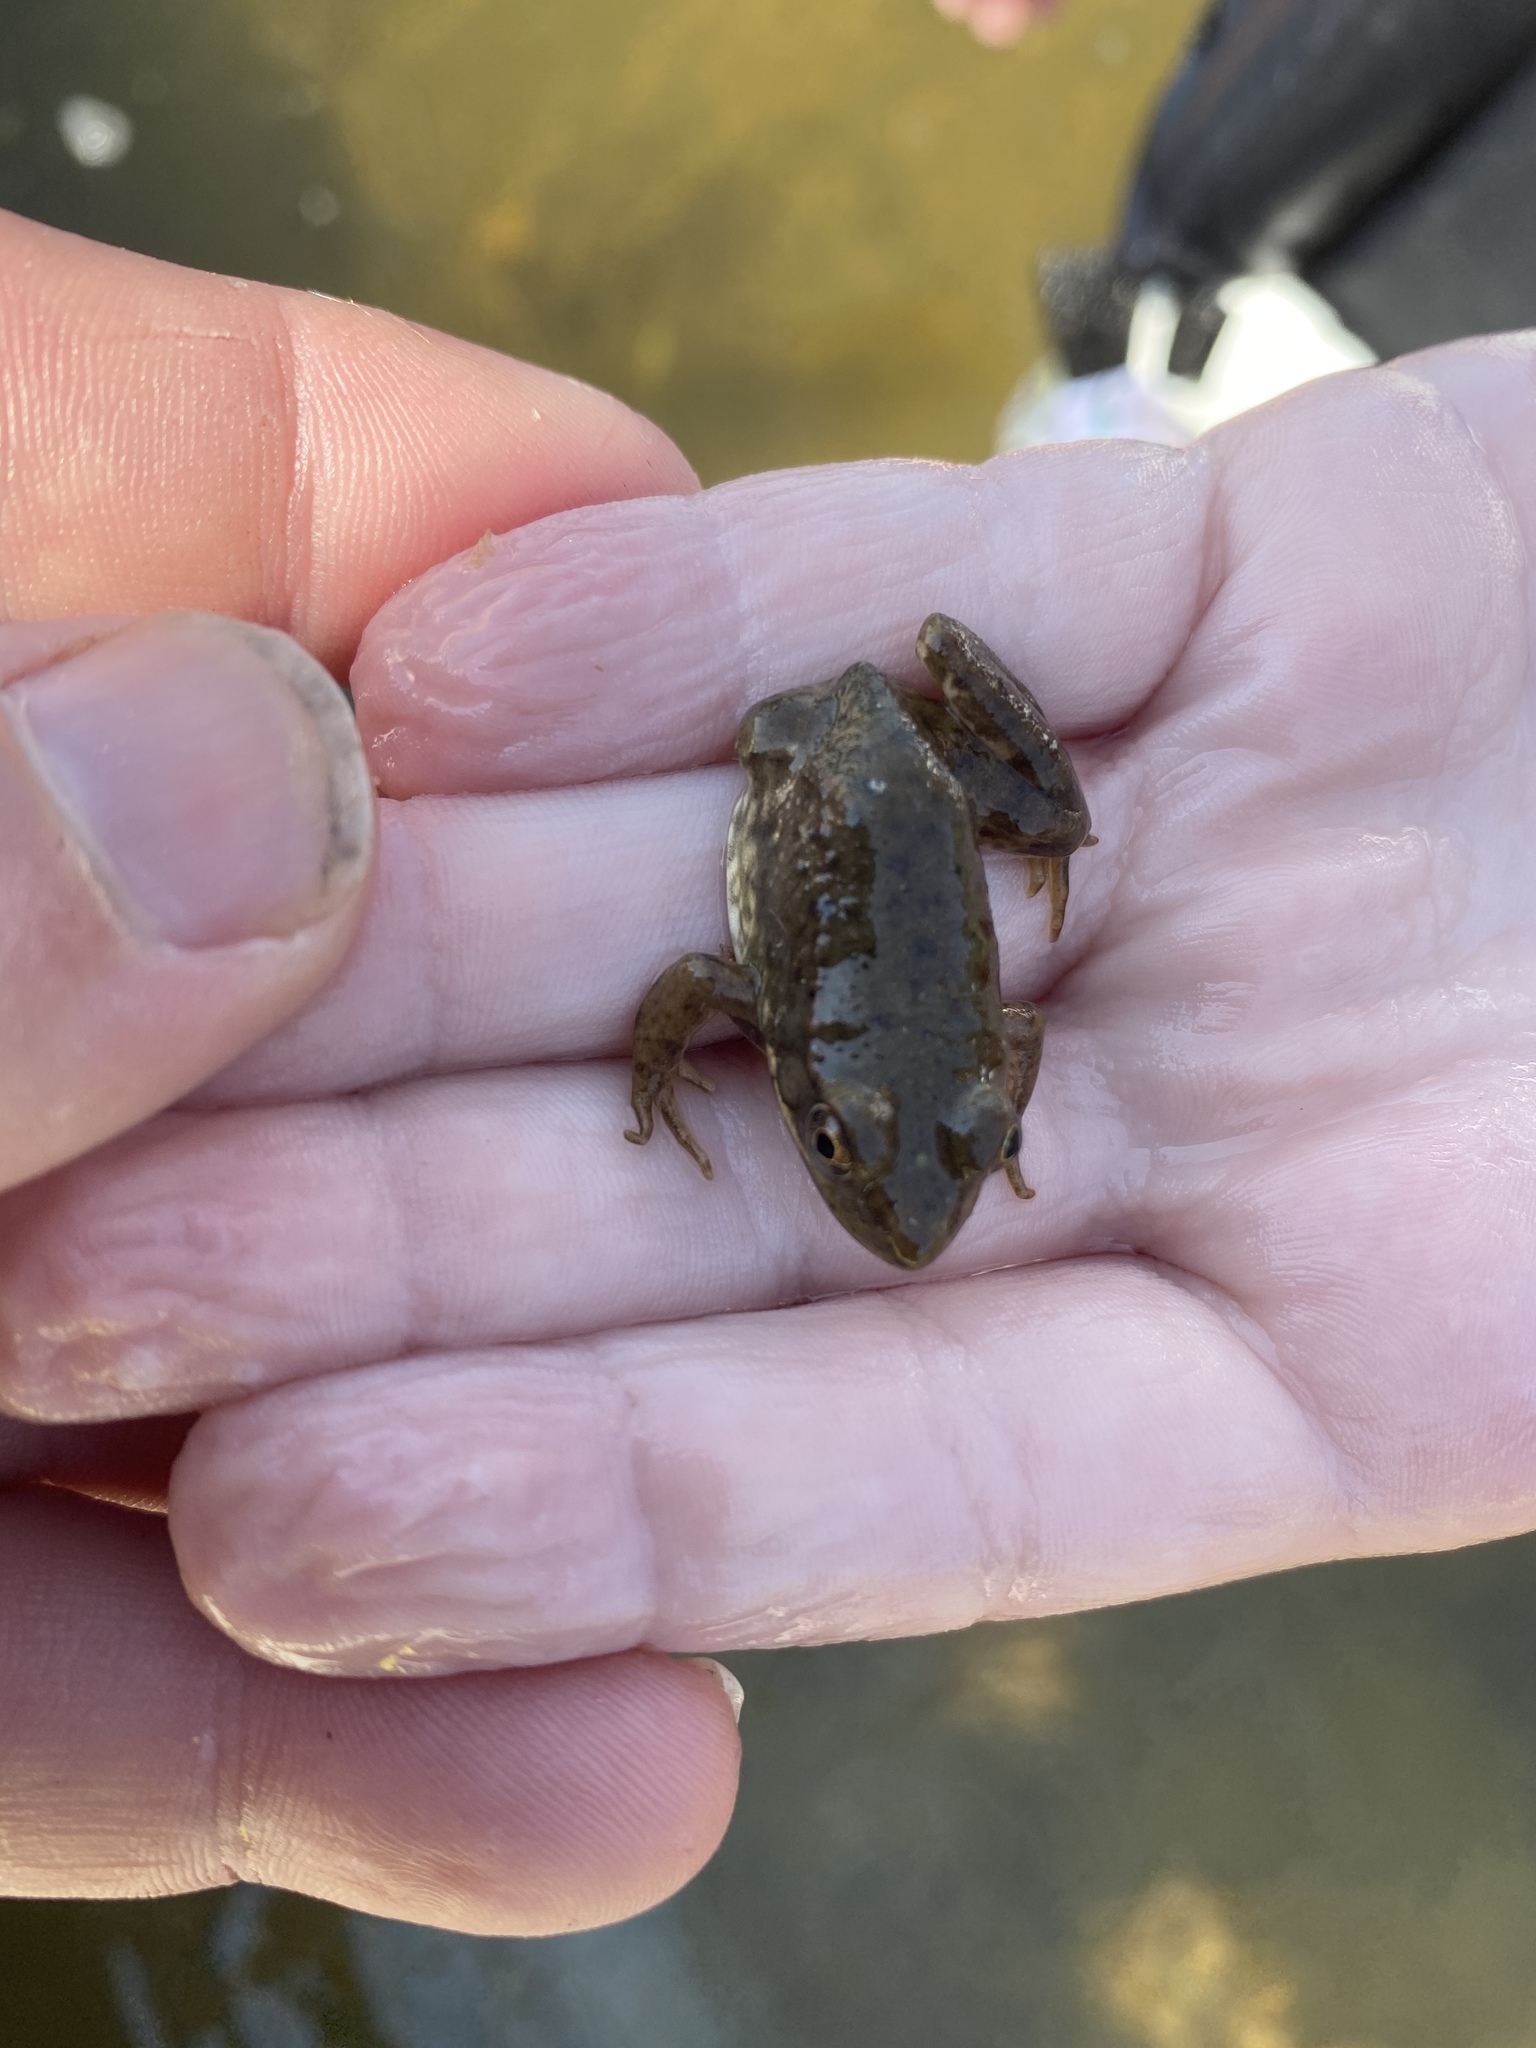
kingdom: Animalia
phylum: Chordata
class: Amphibia
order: Anura
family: Ranidae
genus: Lithobates
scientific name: Lithobates clamitans
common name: Green frog
